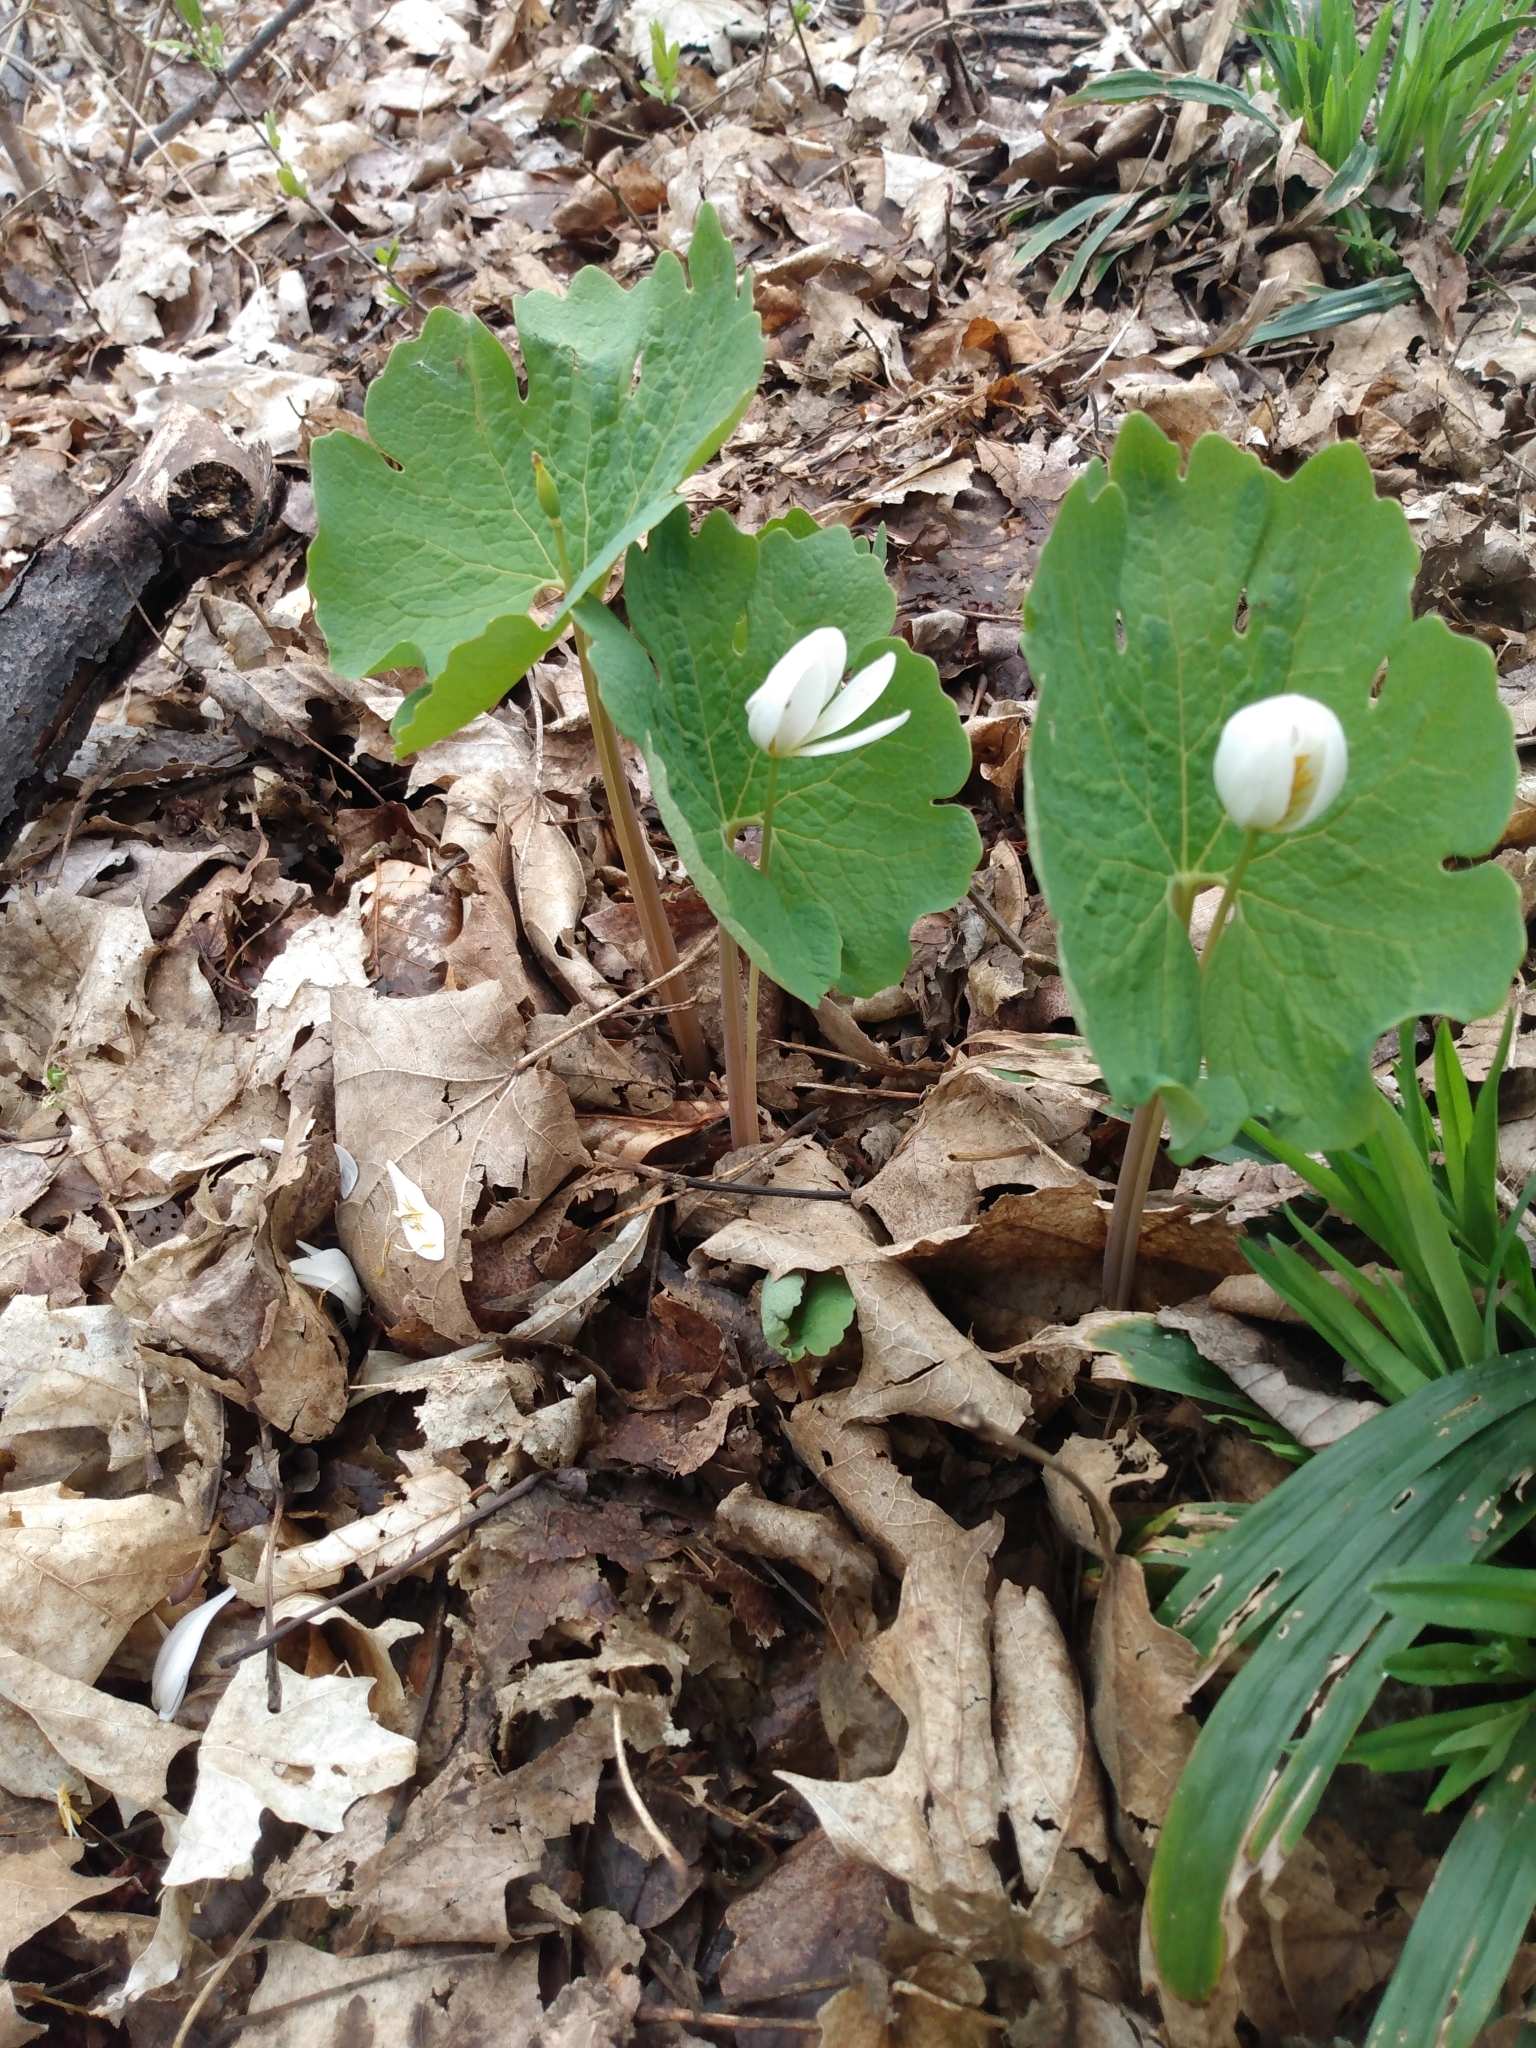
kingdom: Plantae
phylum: Tracheophyta
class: Magnoliopsida
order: Ranunculales
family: Papaveraceae
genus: Sanguinaria
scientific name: Sanguinaria canadensis
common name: Bloodroot
